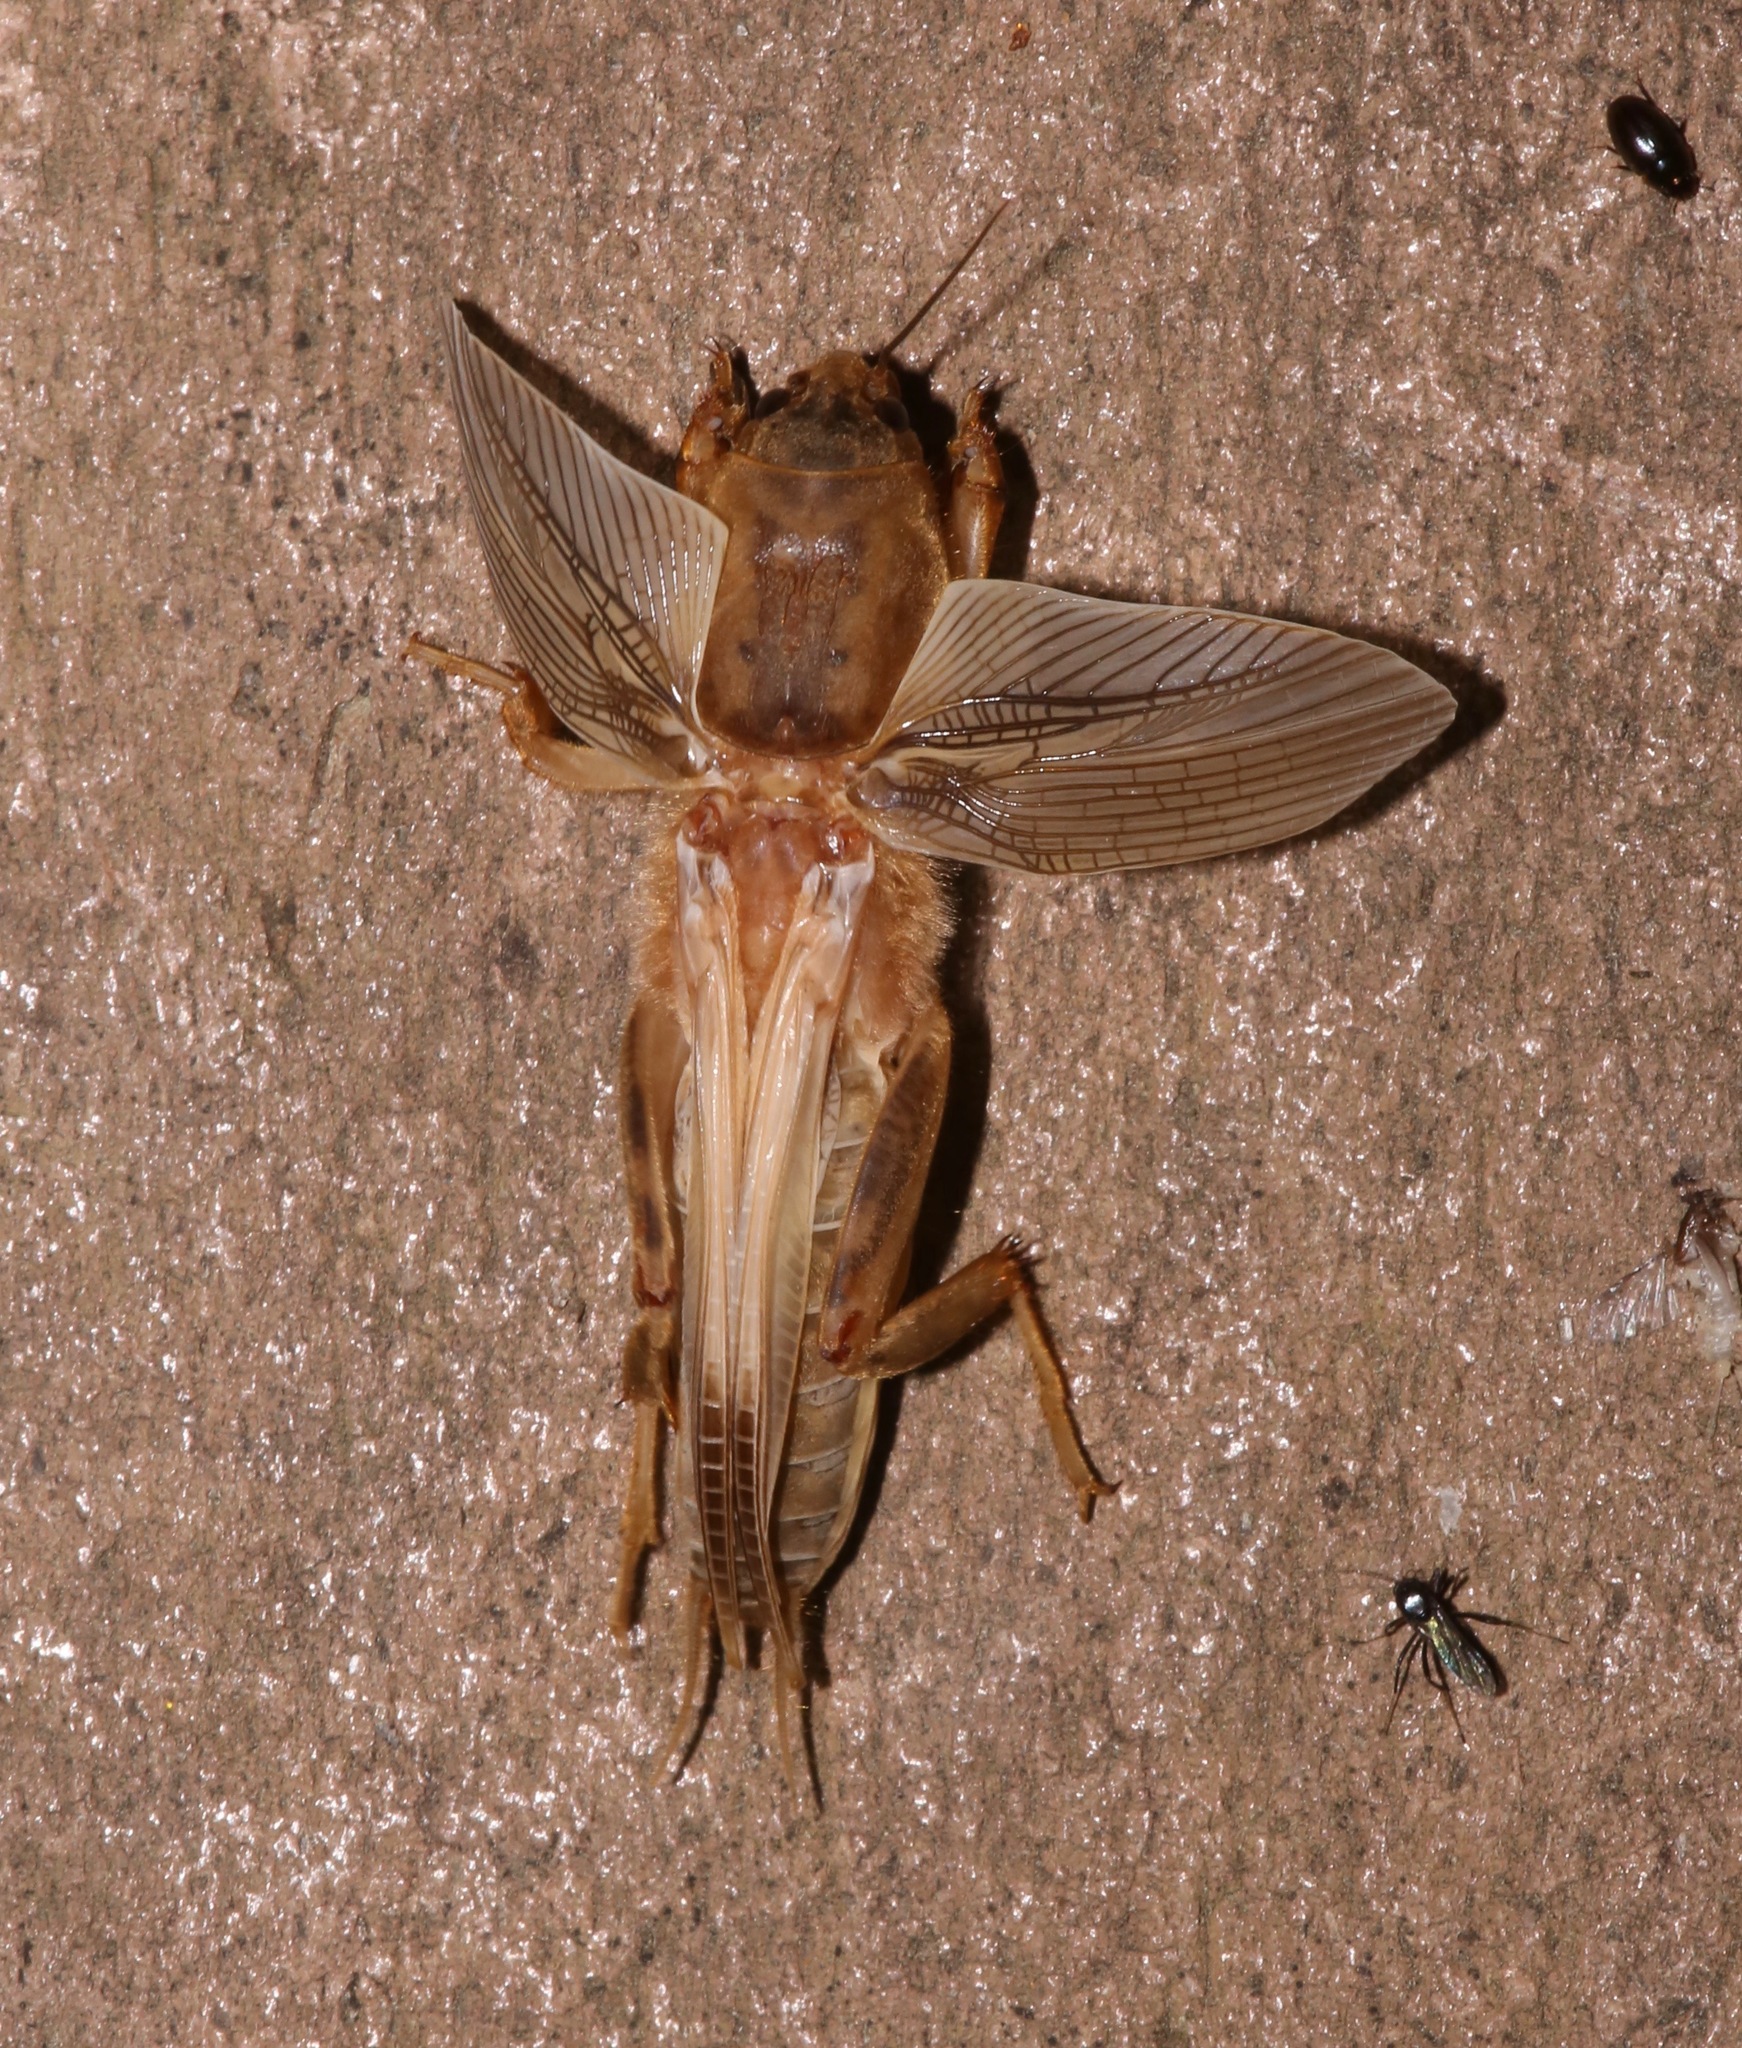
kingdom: Animalia
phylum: Arthropoda
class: Insecta
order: Orthoptera
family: Gryllotalpidae
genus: Neoscapteriscus
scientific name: Neoscapteriscus vicinus
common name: Tawny mole cricket
